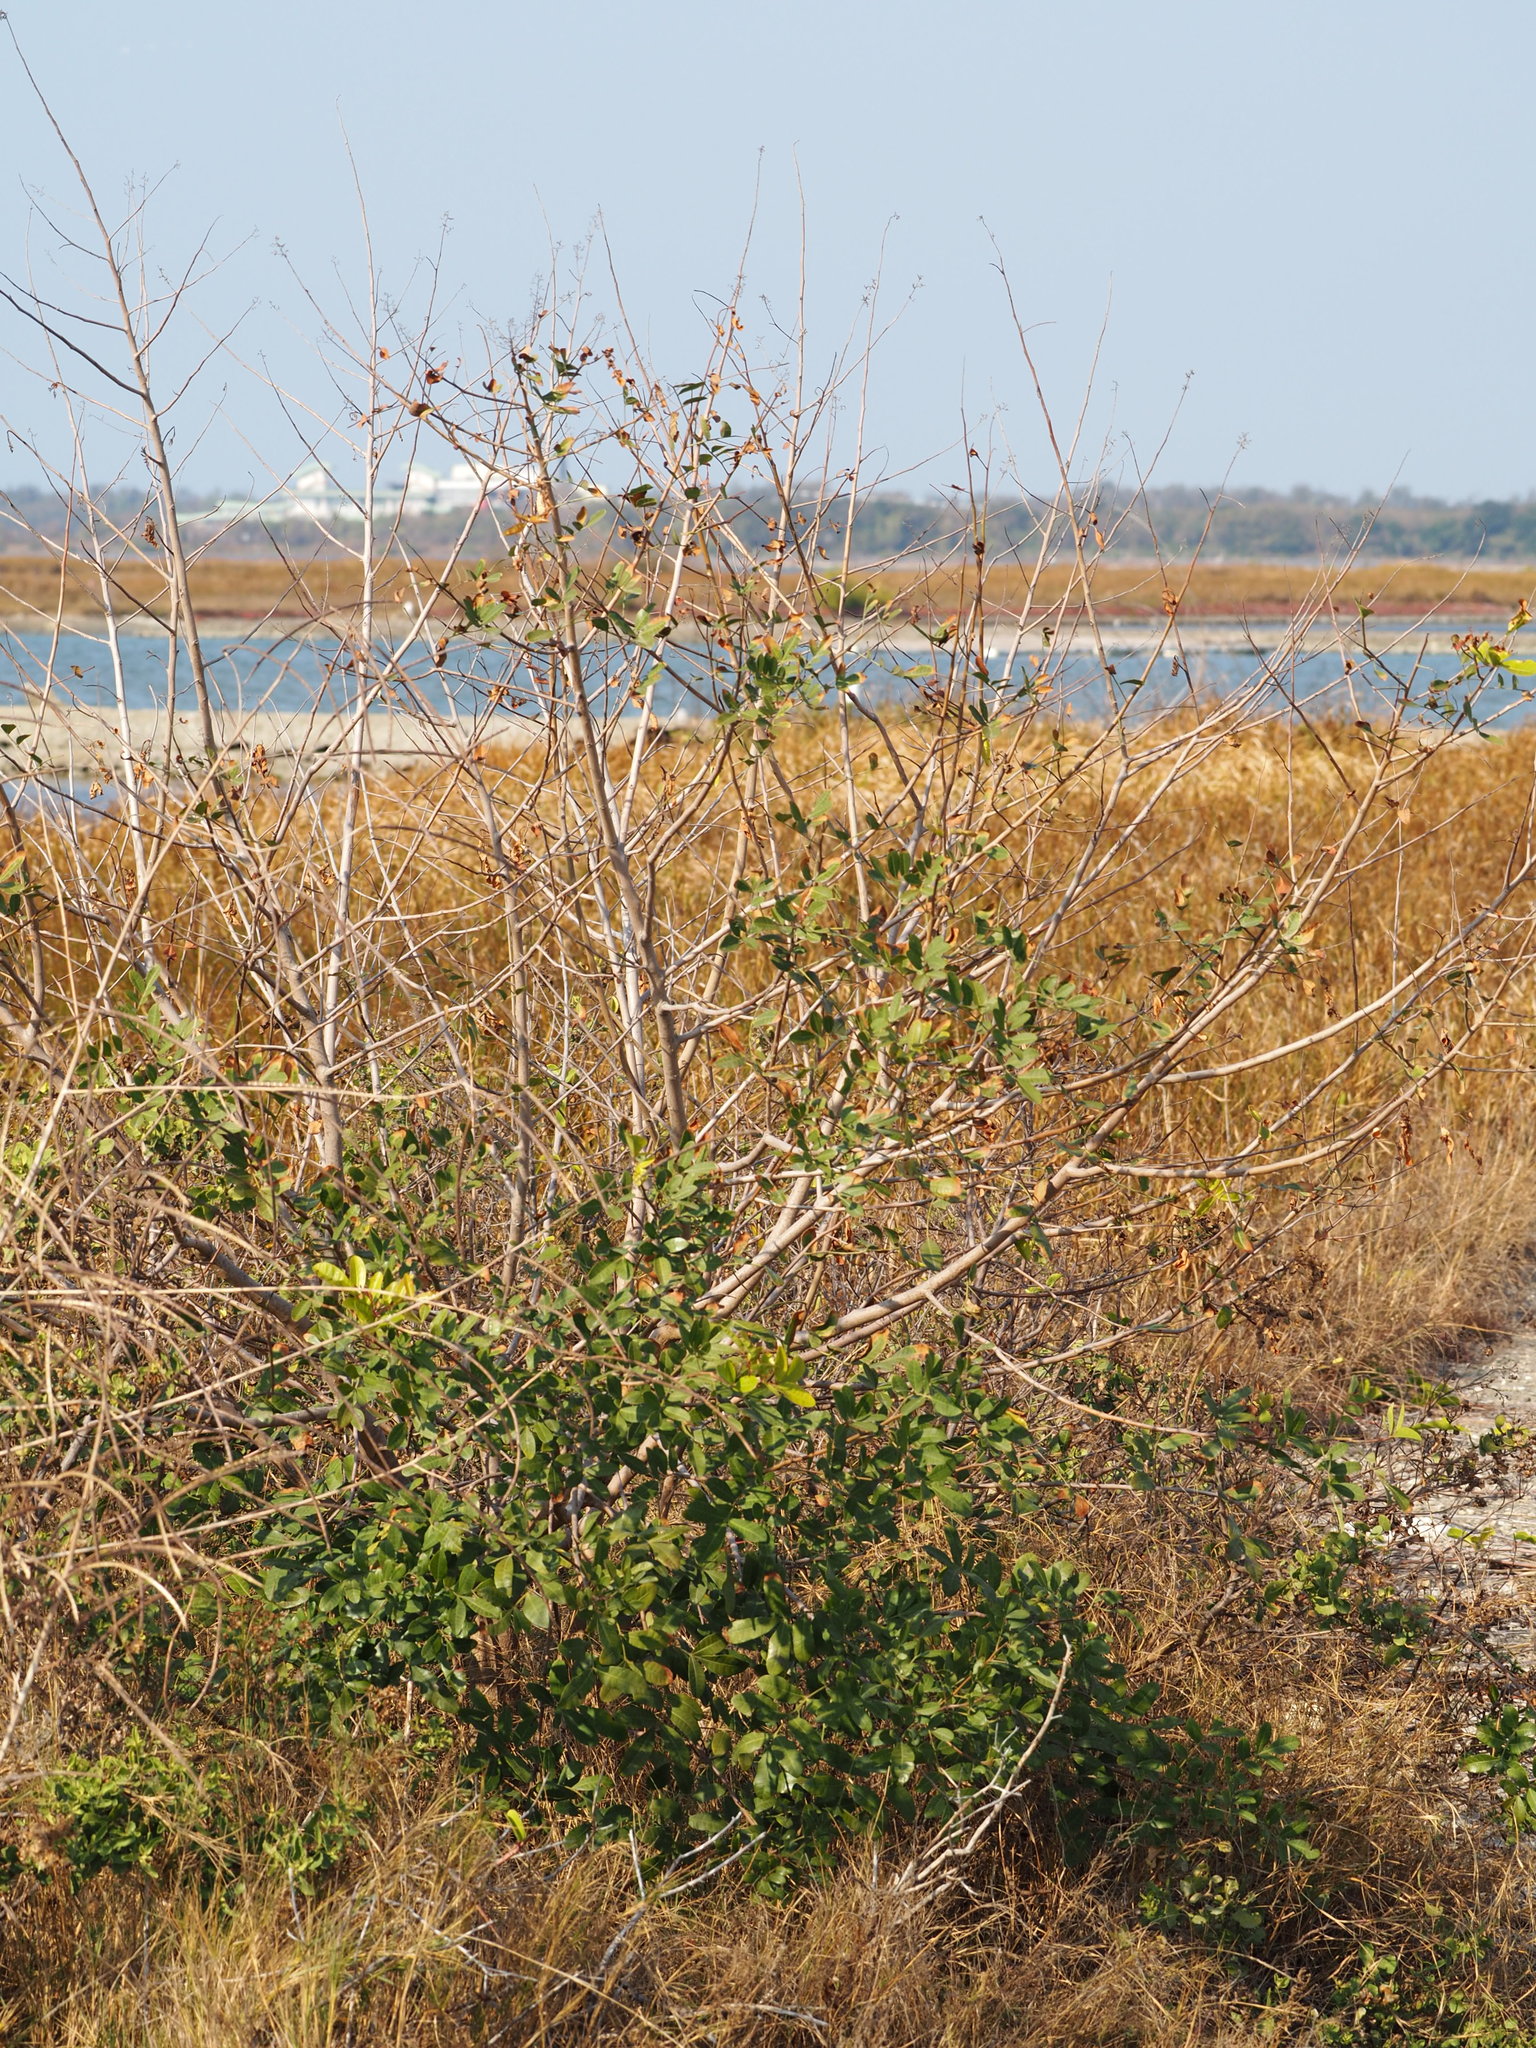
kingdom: Plantae
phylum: Tracheophyta
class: Magnoliopsida
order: Sapindales
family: Anacardiaceae
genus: Schinus
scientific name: Schinus terebinthifolia
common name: Brazilian peppertree
